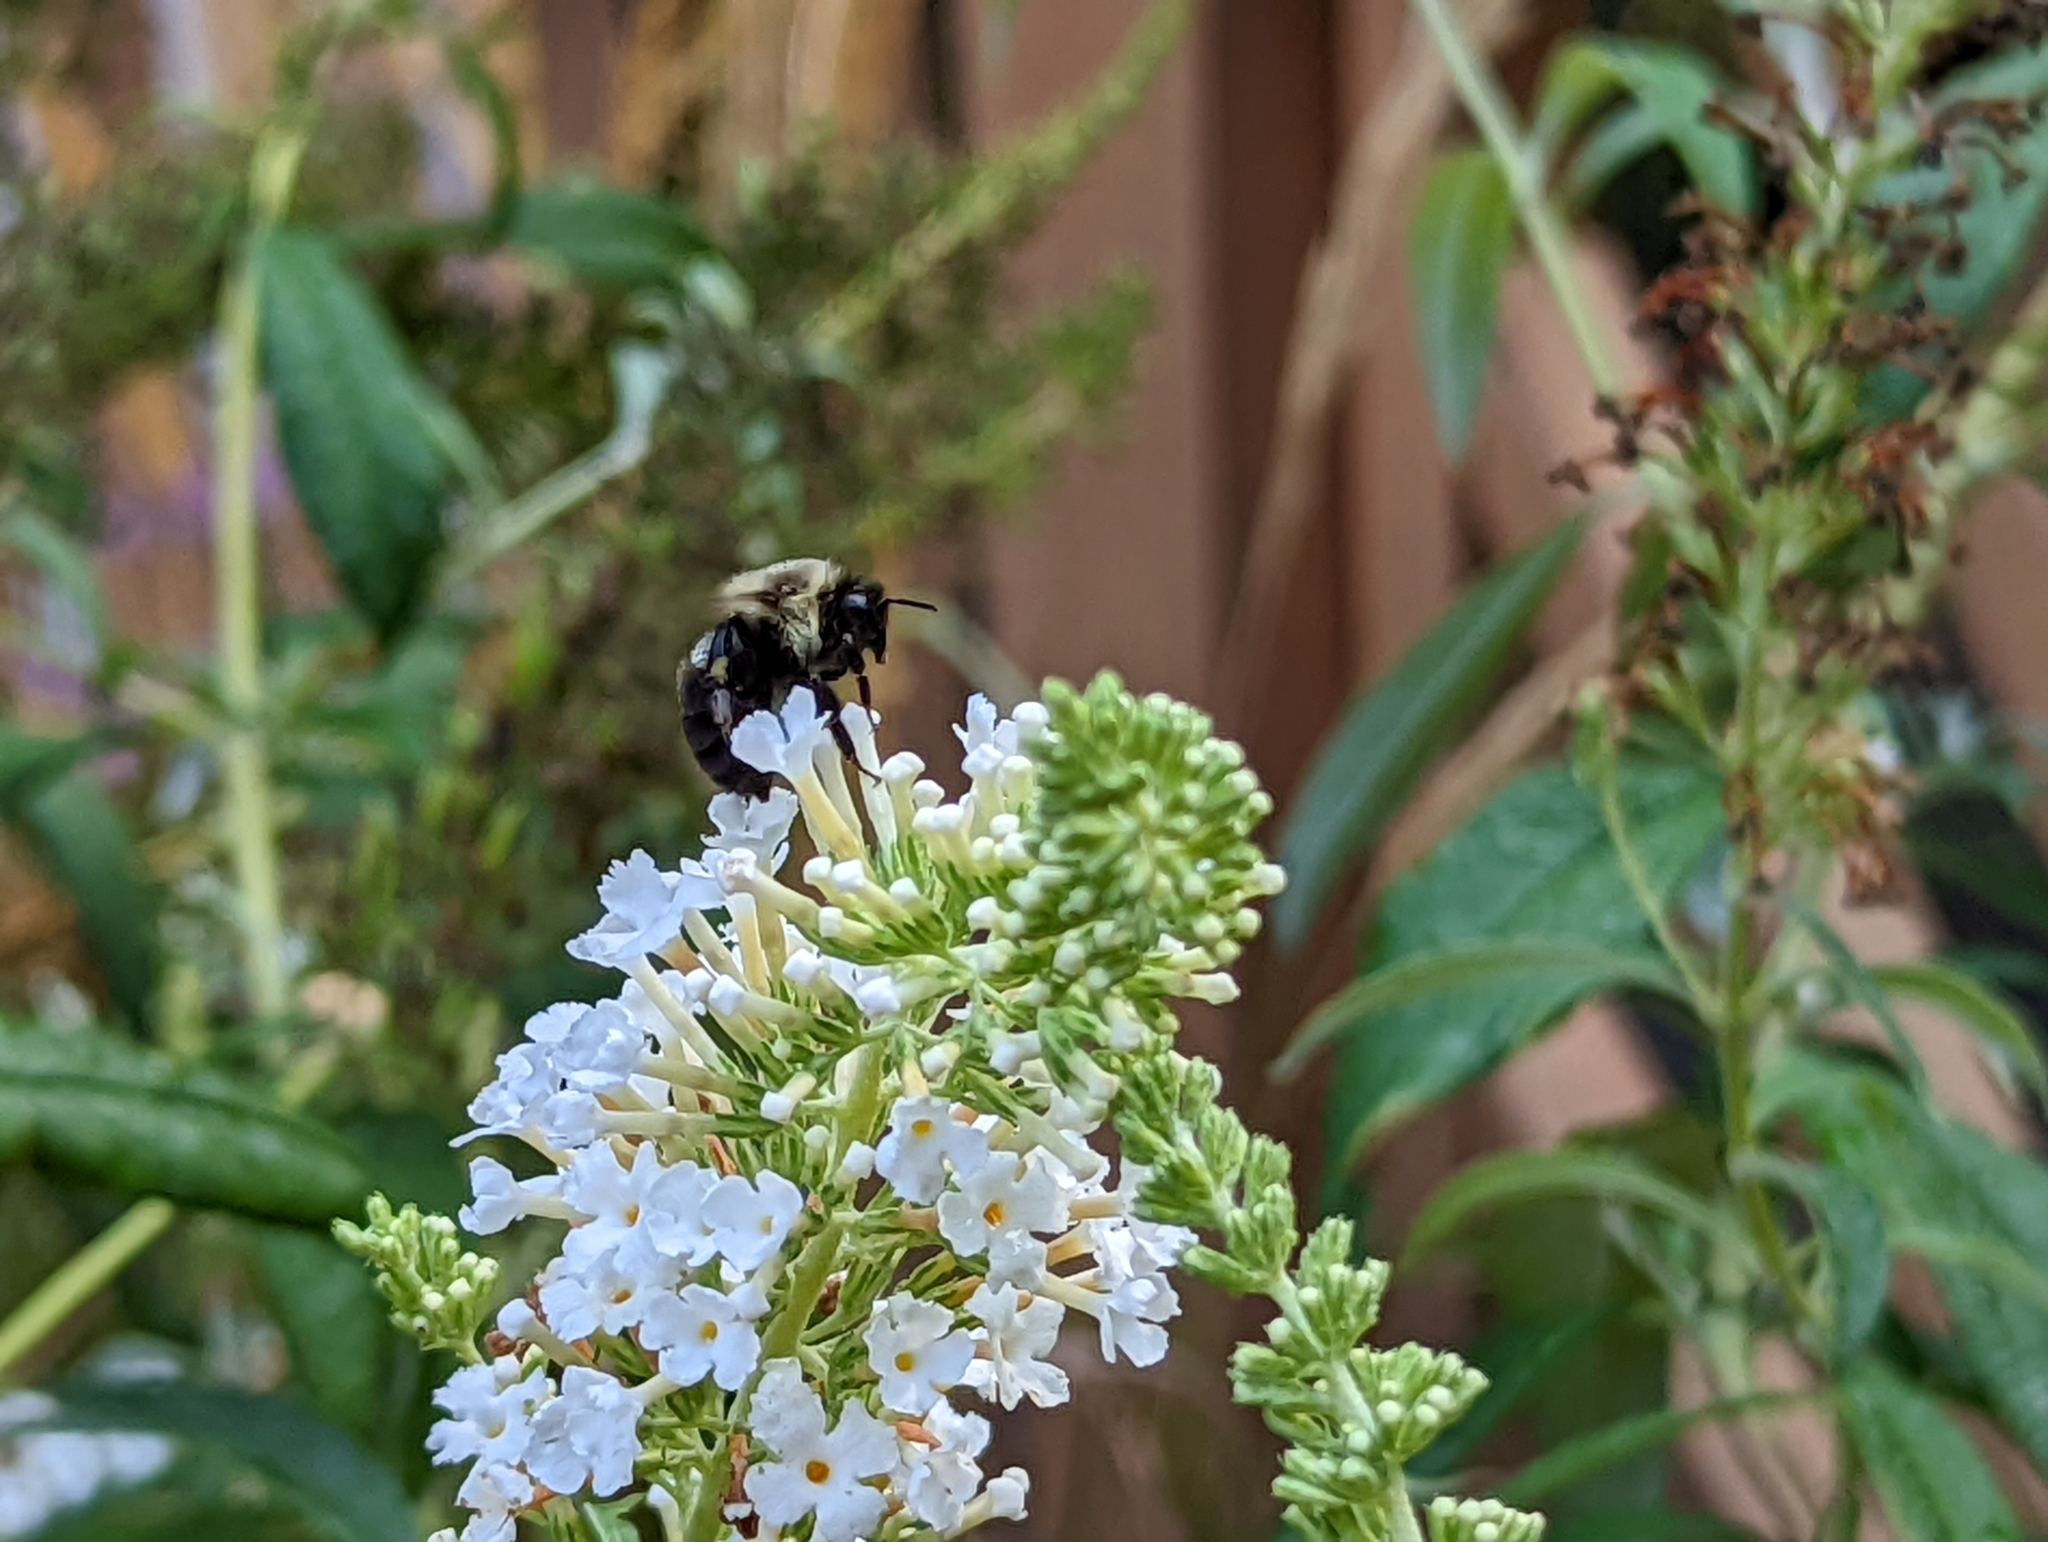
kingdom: Animalia
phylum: Arthropoda
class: Insecta
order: Hymenoptera
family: Apidae
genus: Bombus
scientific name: Bombus impatiens
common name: Common eastern bumble bee
